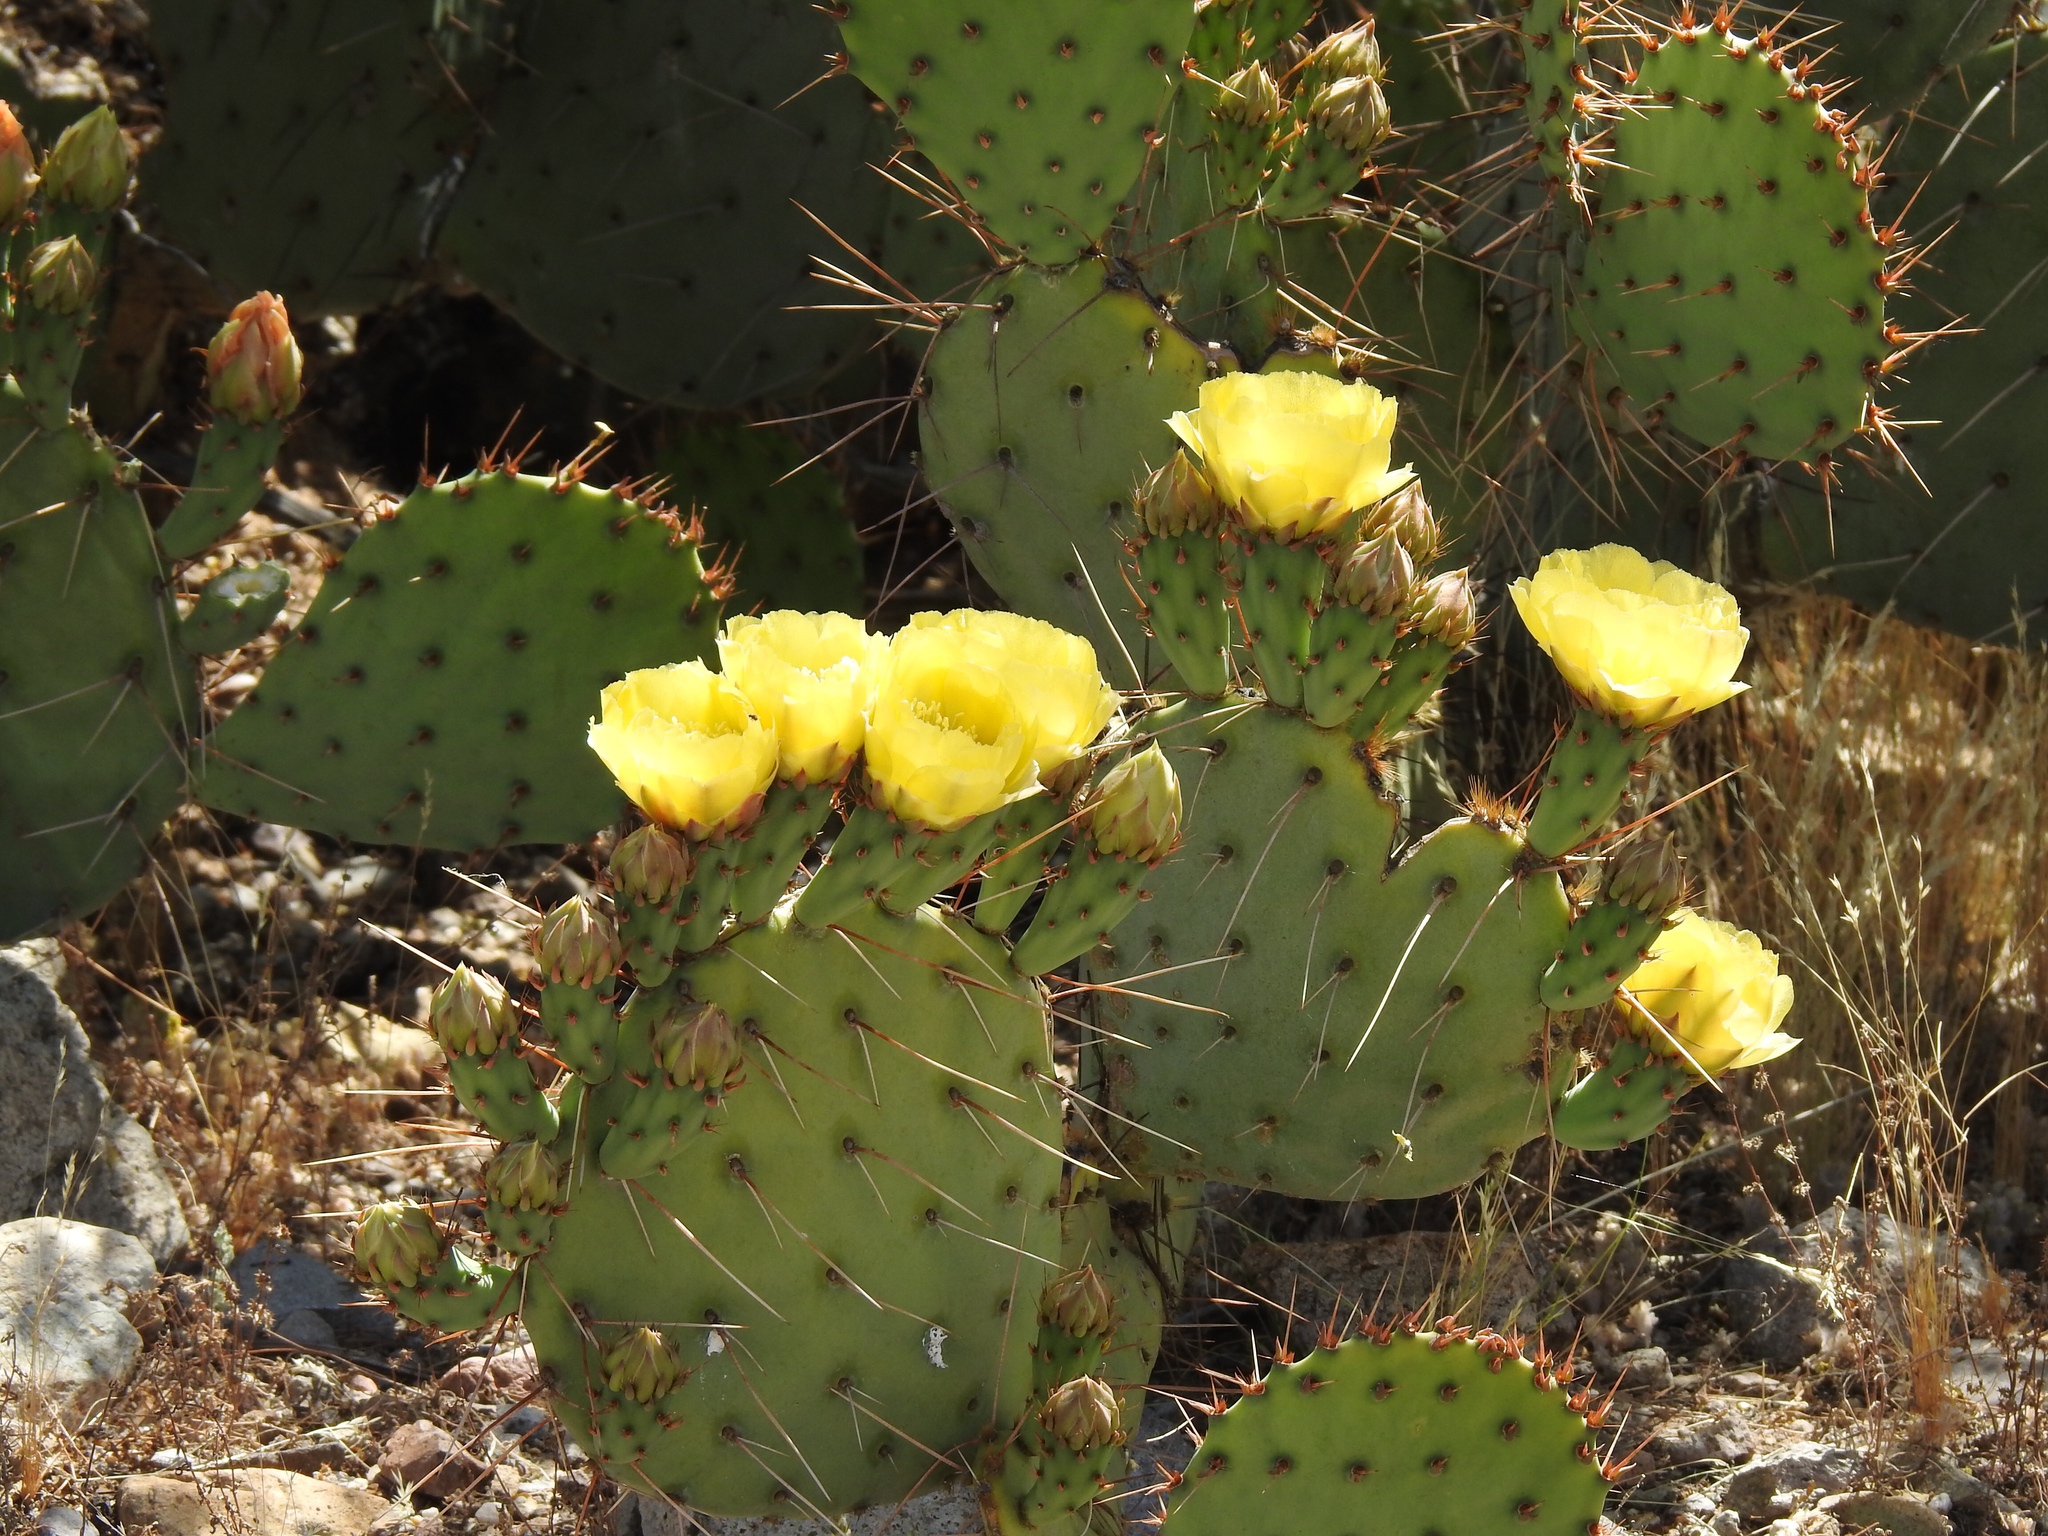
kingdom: Plantae
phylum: Tracheophyta
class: Magnoliopsida
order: Caryophyllales
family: Cactaceae
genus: Opuntia
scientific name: Opuntia engelmannii
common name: Cactus-apple
